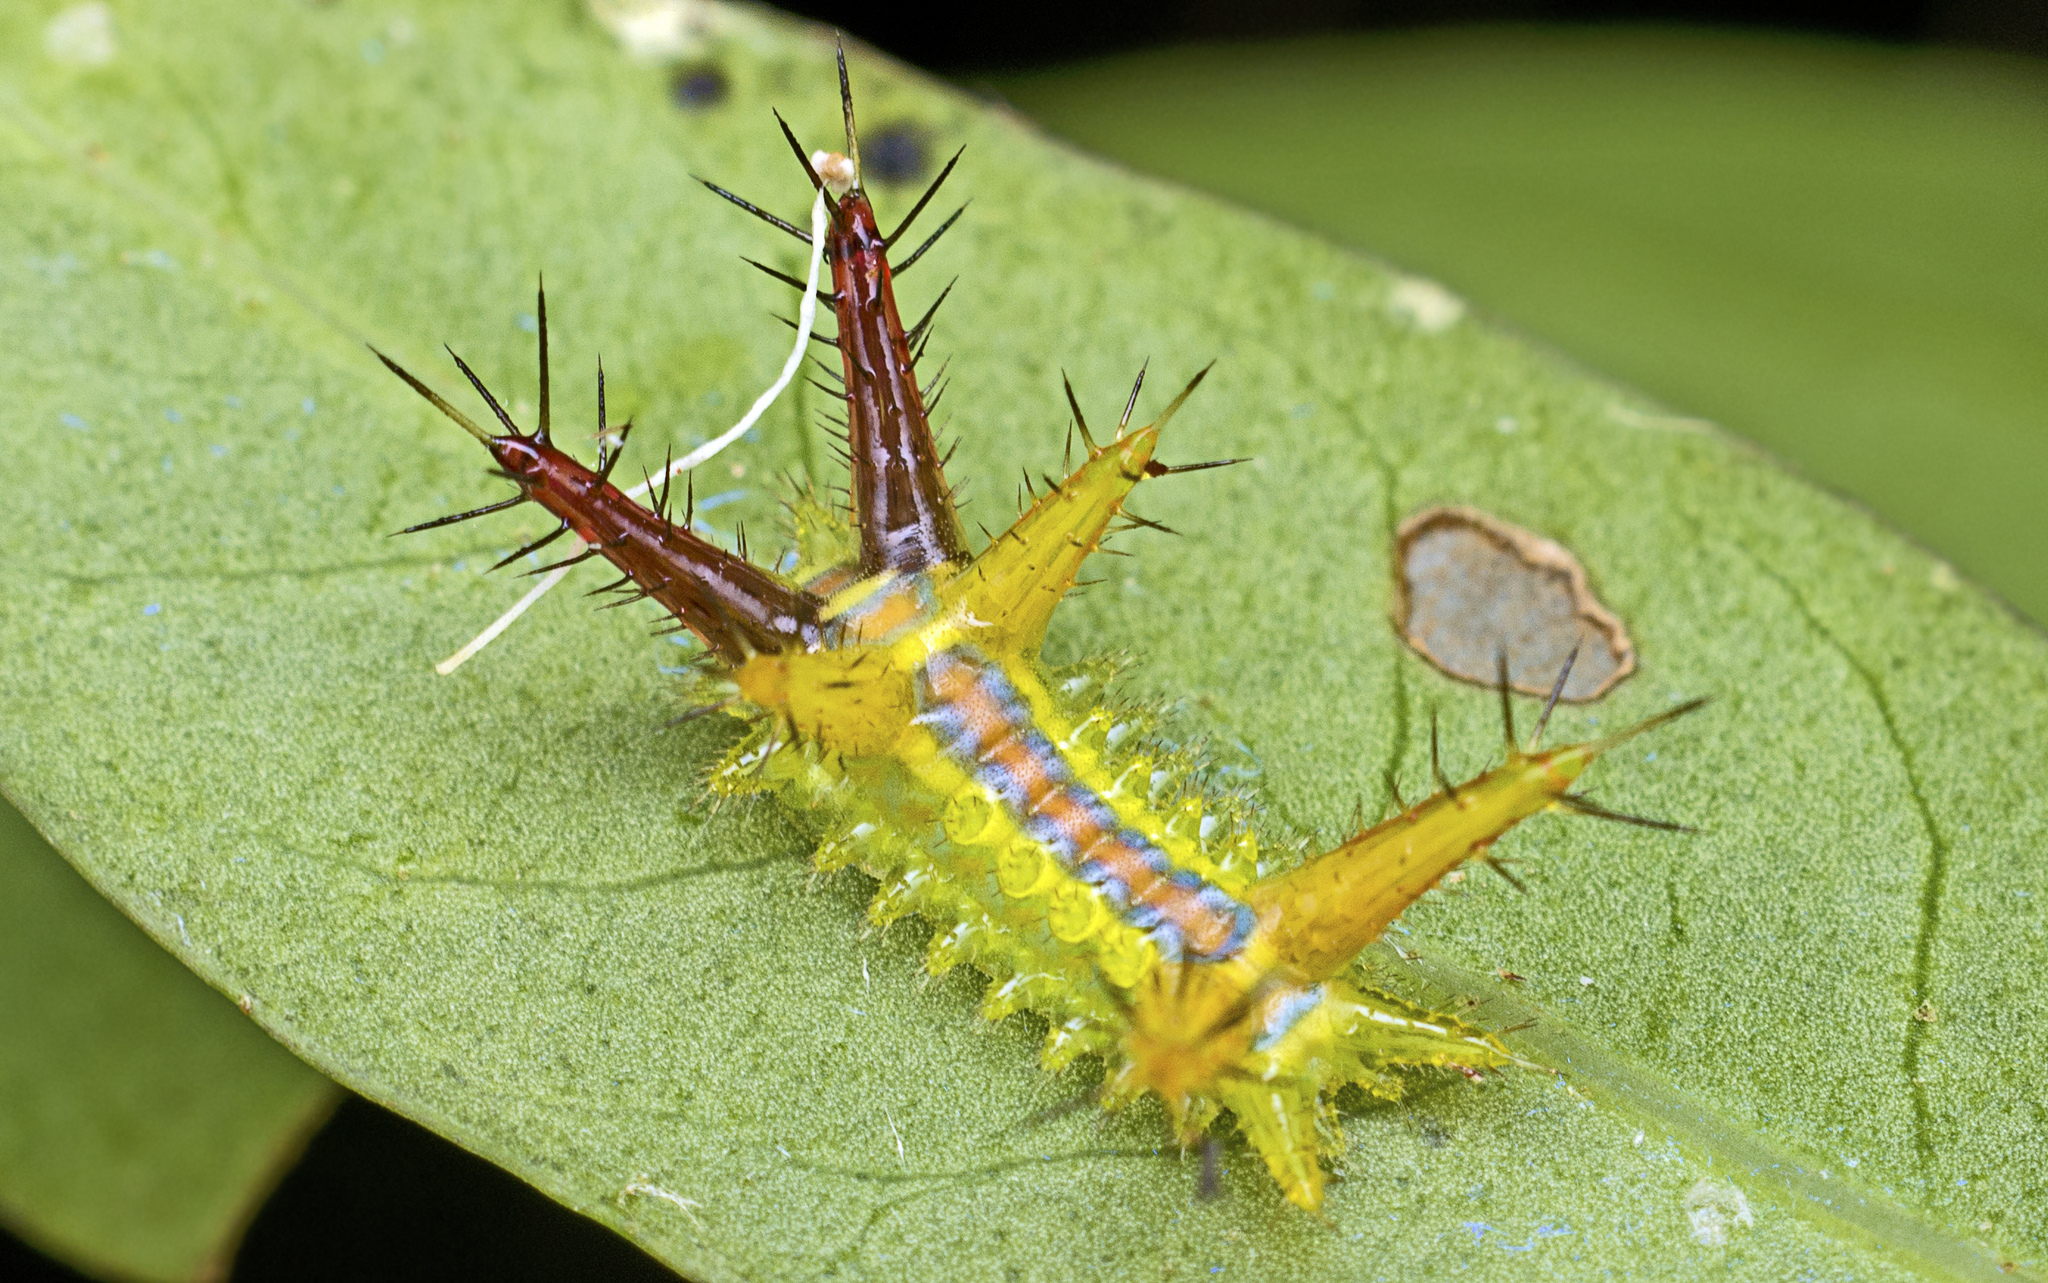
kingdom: Animalia
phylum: Arthropoda
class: Insecta
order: Lepidoptera
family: Limacodidae
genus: Comana
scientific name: Comana albibasis
